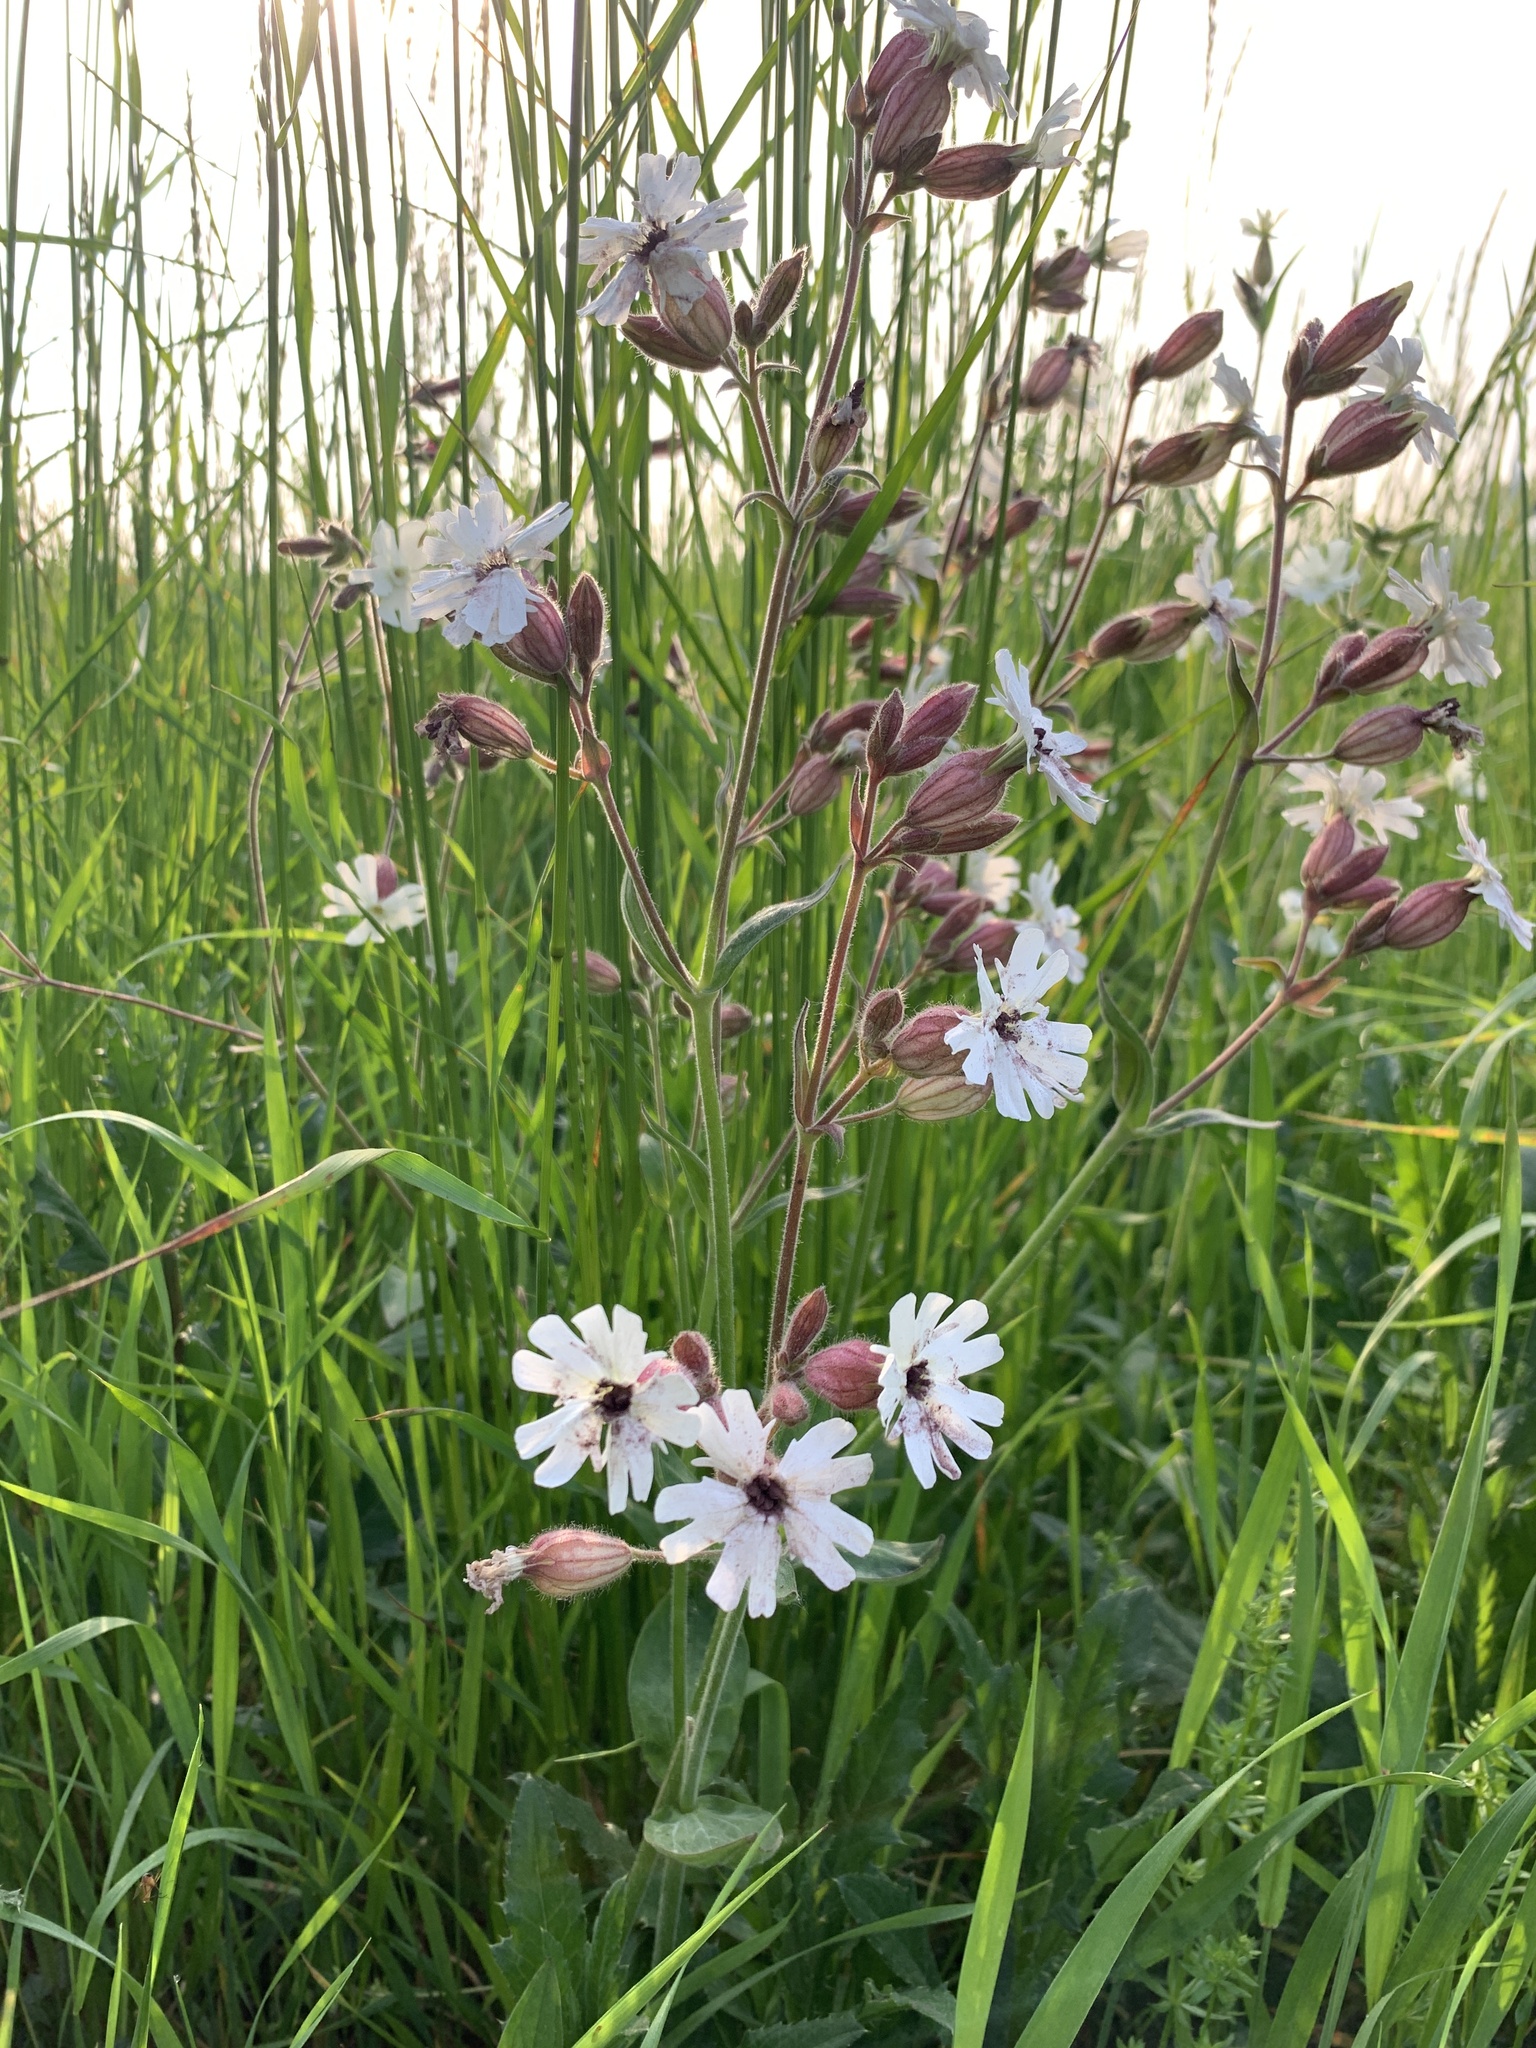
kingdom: Plantae
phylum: Tracheophyta
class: Magnoliopsida
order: Caryophyllales
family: Caryophyllaceae
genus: Silene
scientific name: Silene latifolia
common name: White campion
